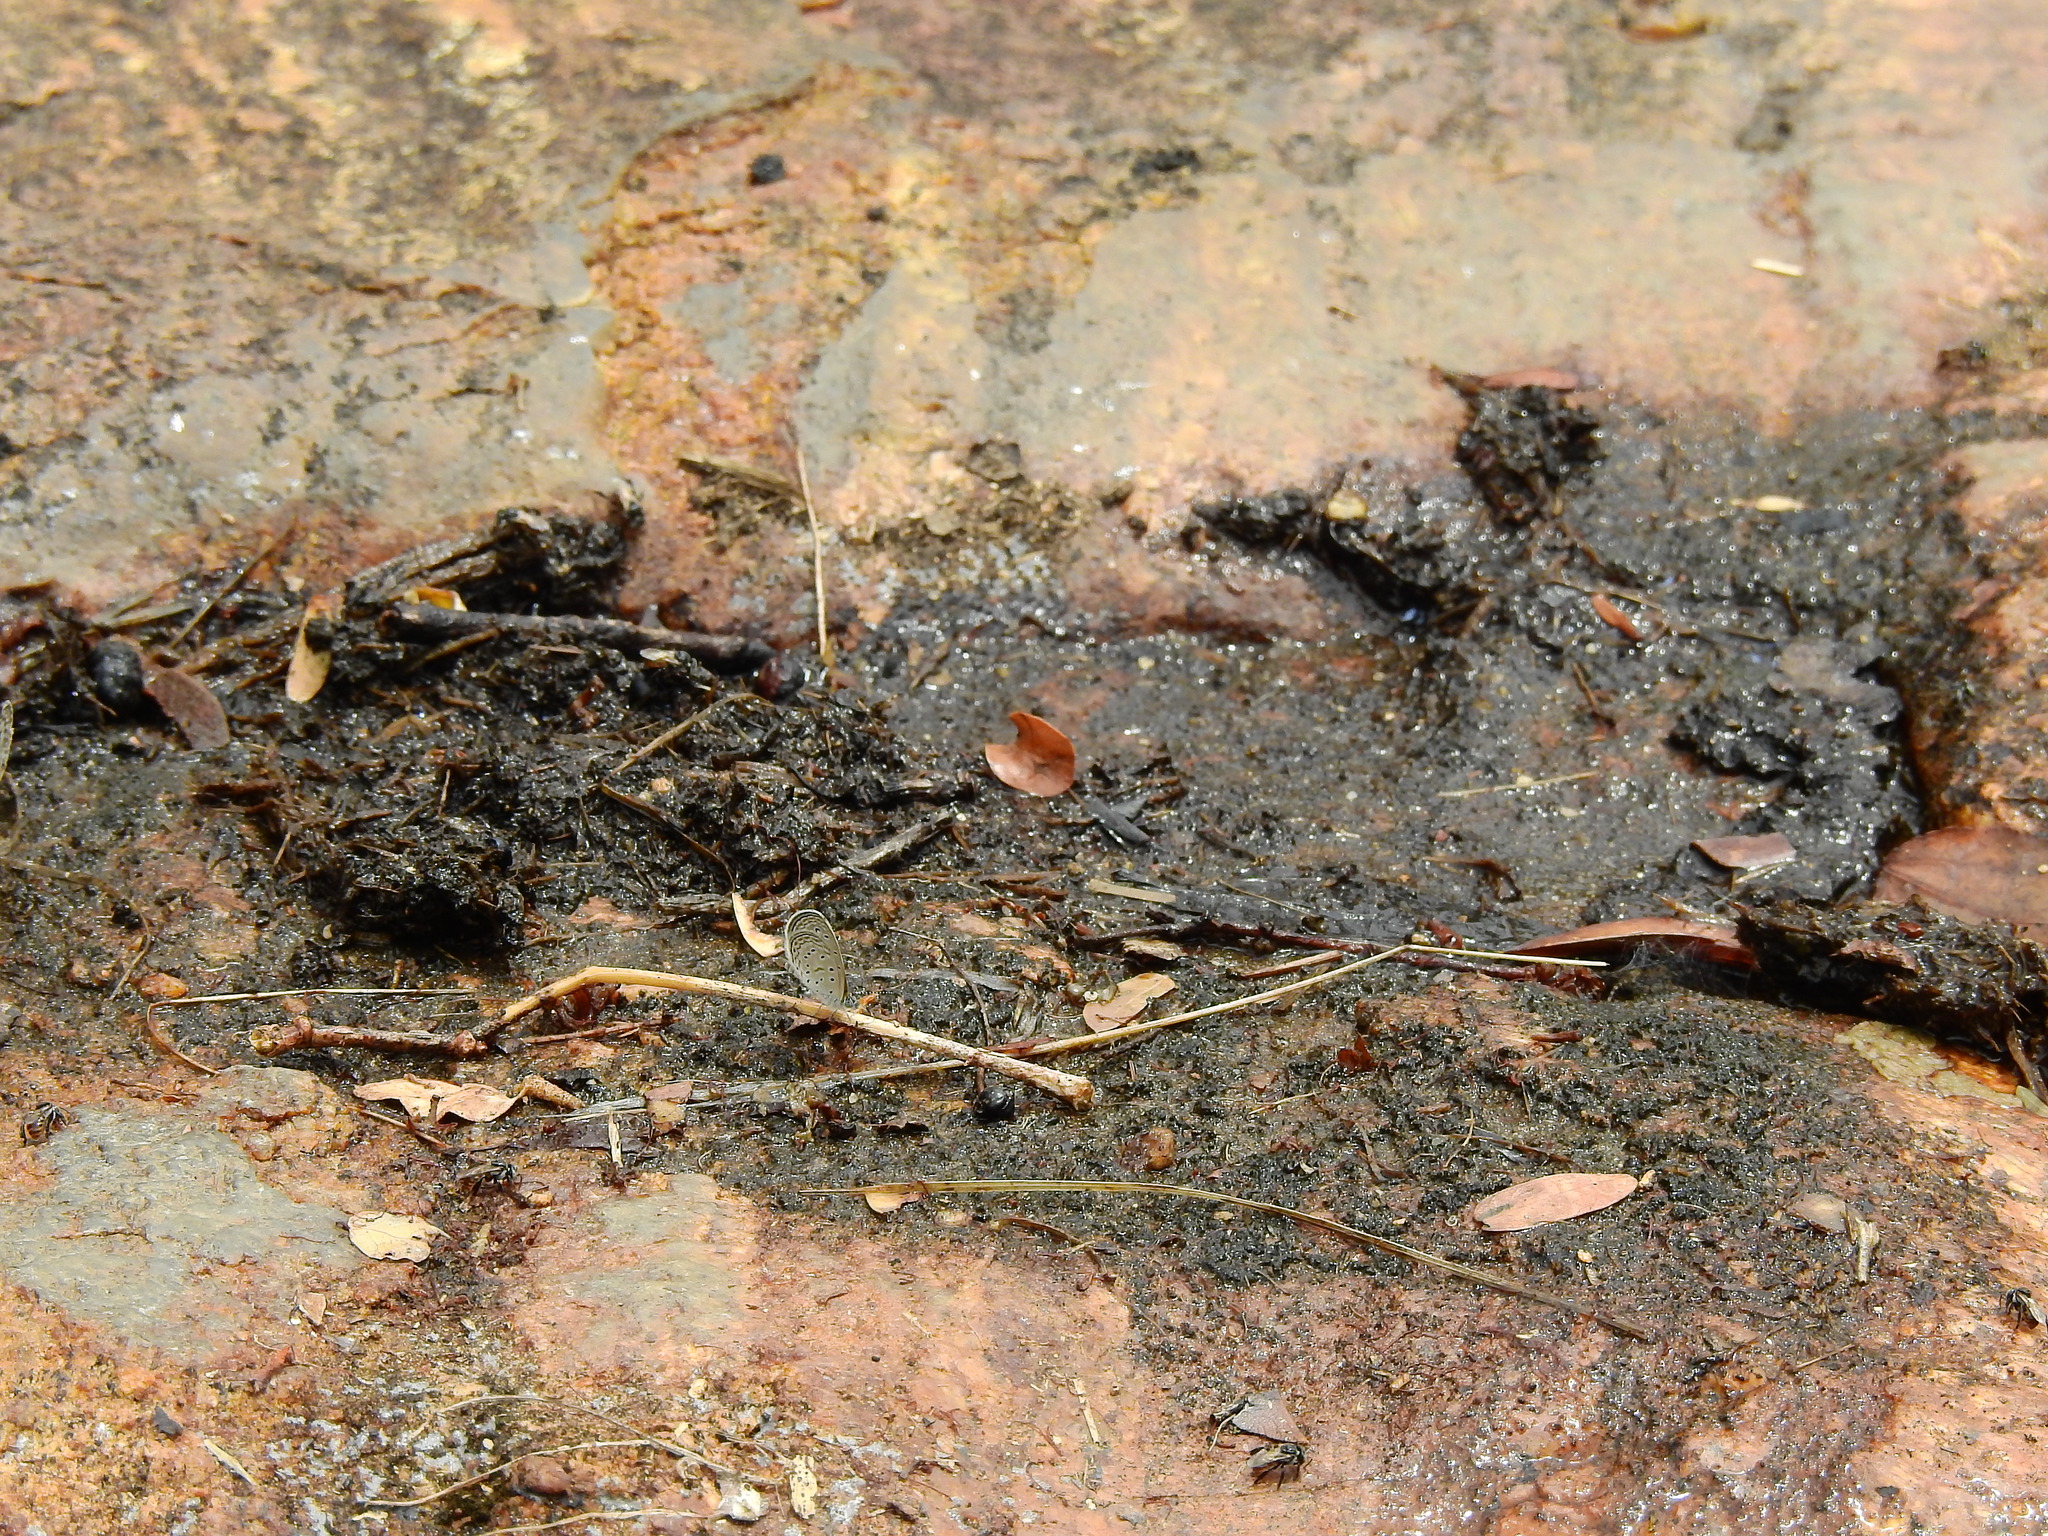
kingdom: Animalia
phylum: Arthropoda
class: Insecta
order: Lepidoptera
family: Lycaenidae
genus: Zizula
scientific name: Zizula hylax
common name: Gaika blue
